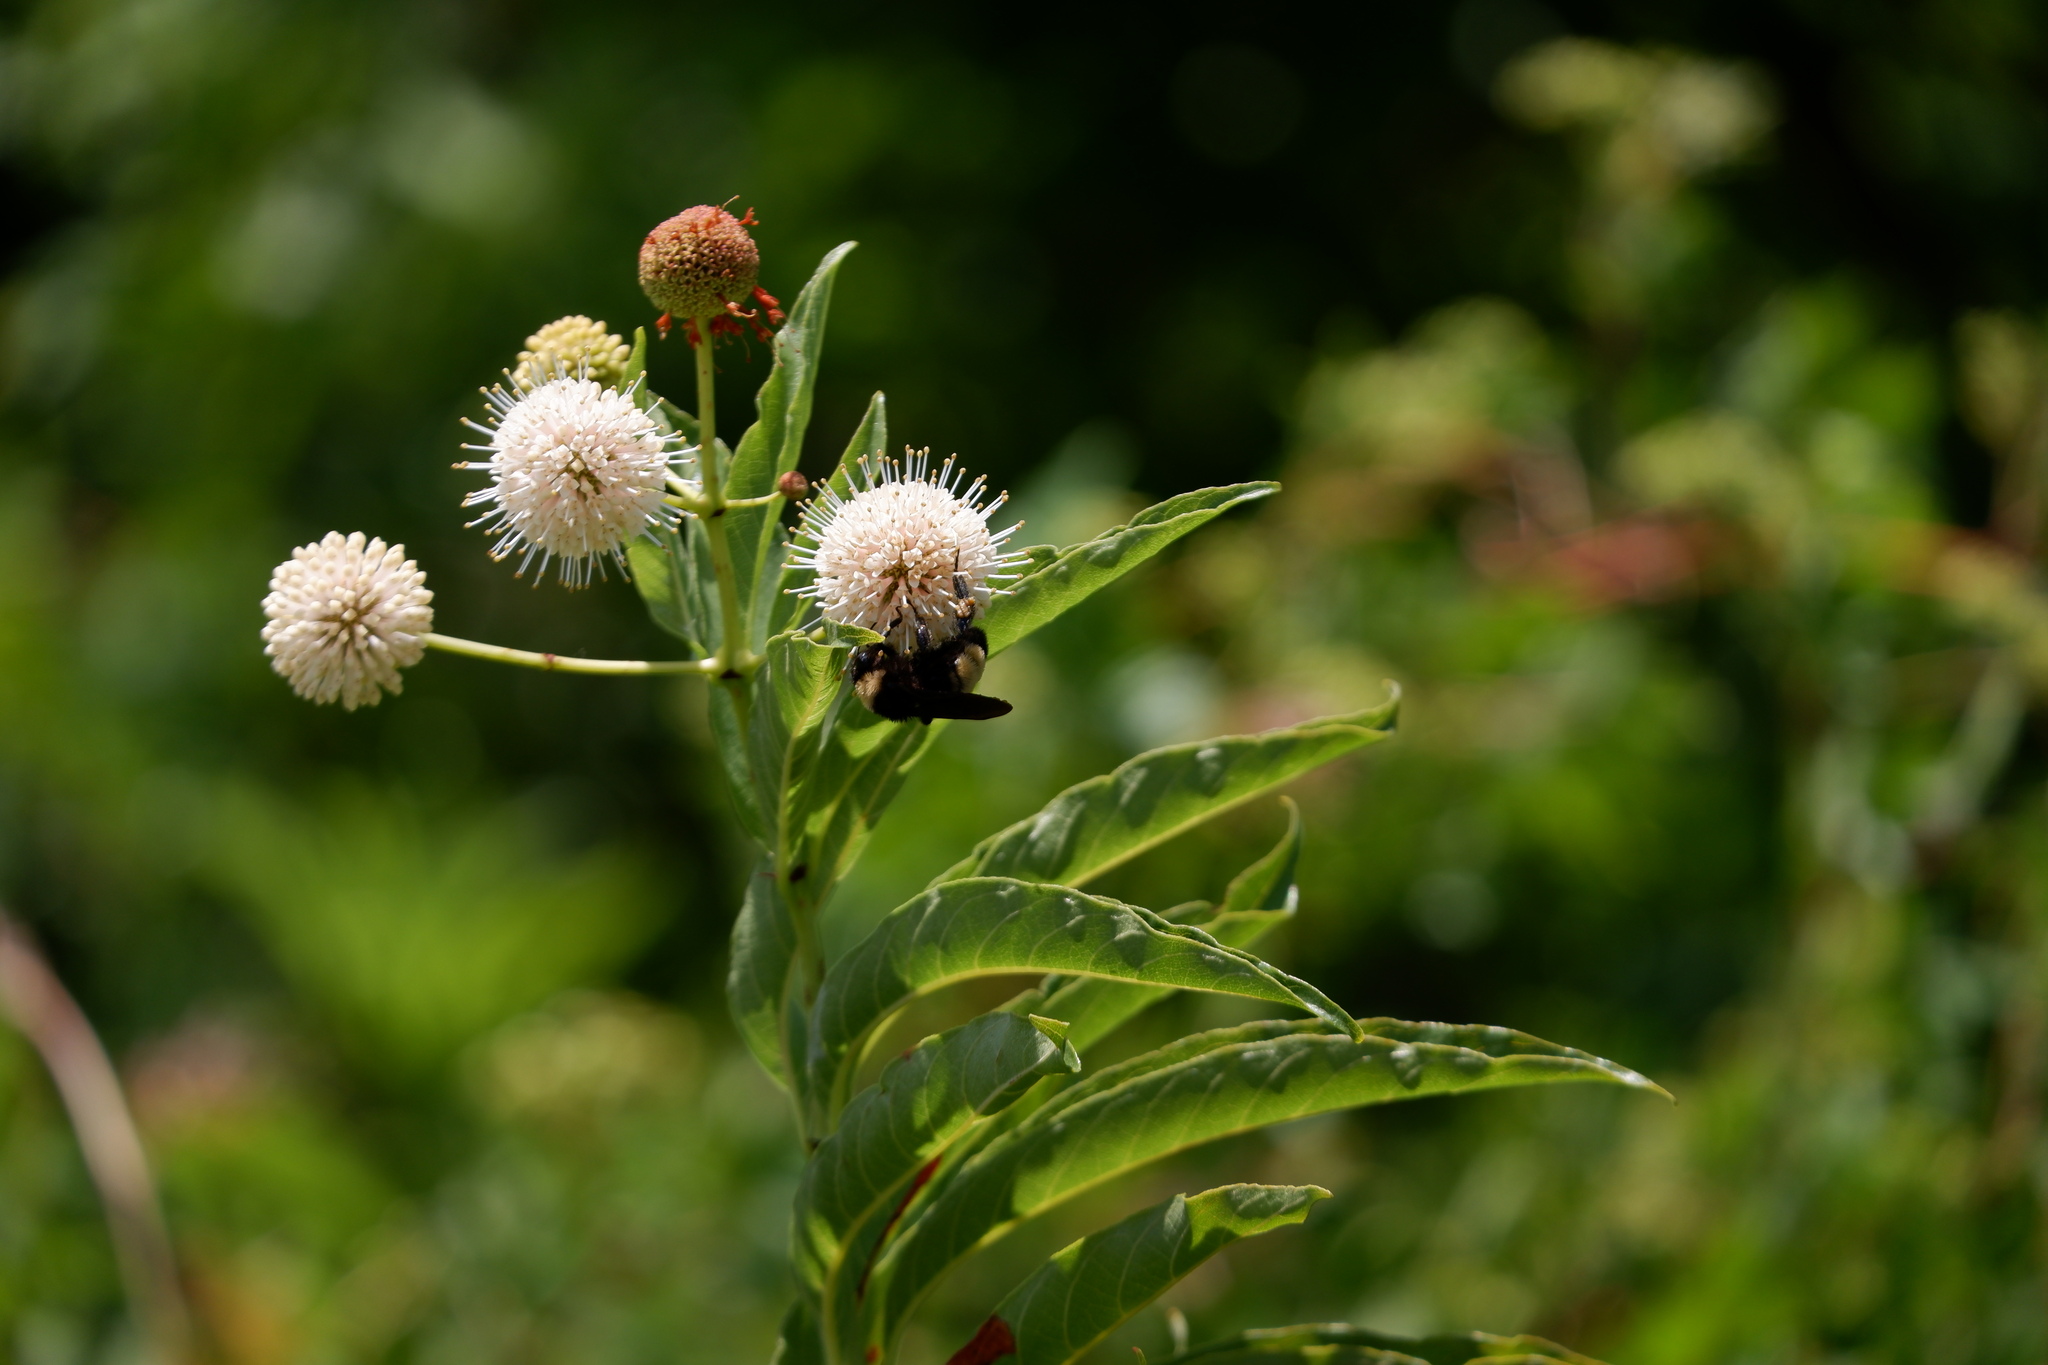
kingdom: Animalia
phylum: Arthropoda
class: Insecta
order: Hymenoptera
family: Apidae
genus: Bombus
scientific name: Bombus pensylvanicus
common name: Bumble bee
